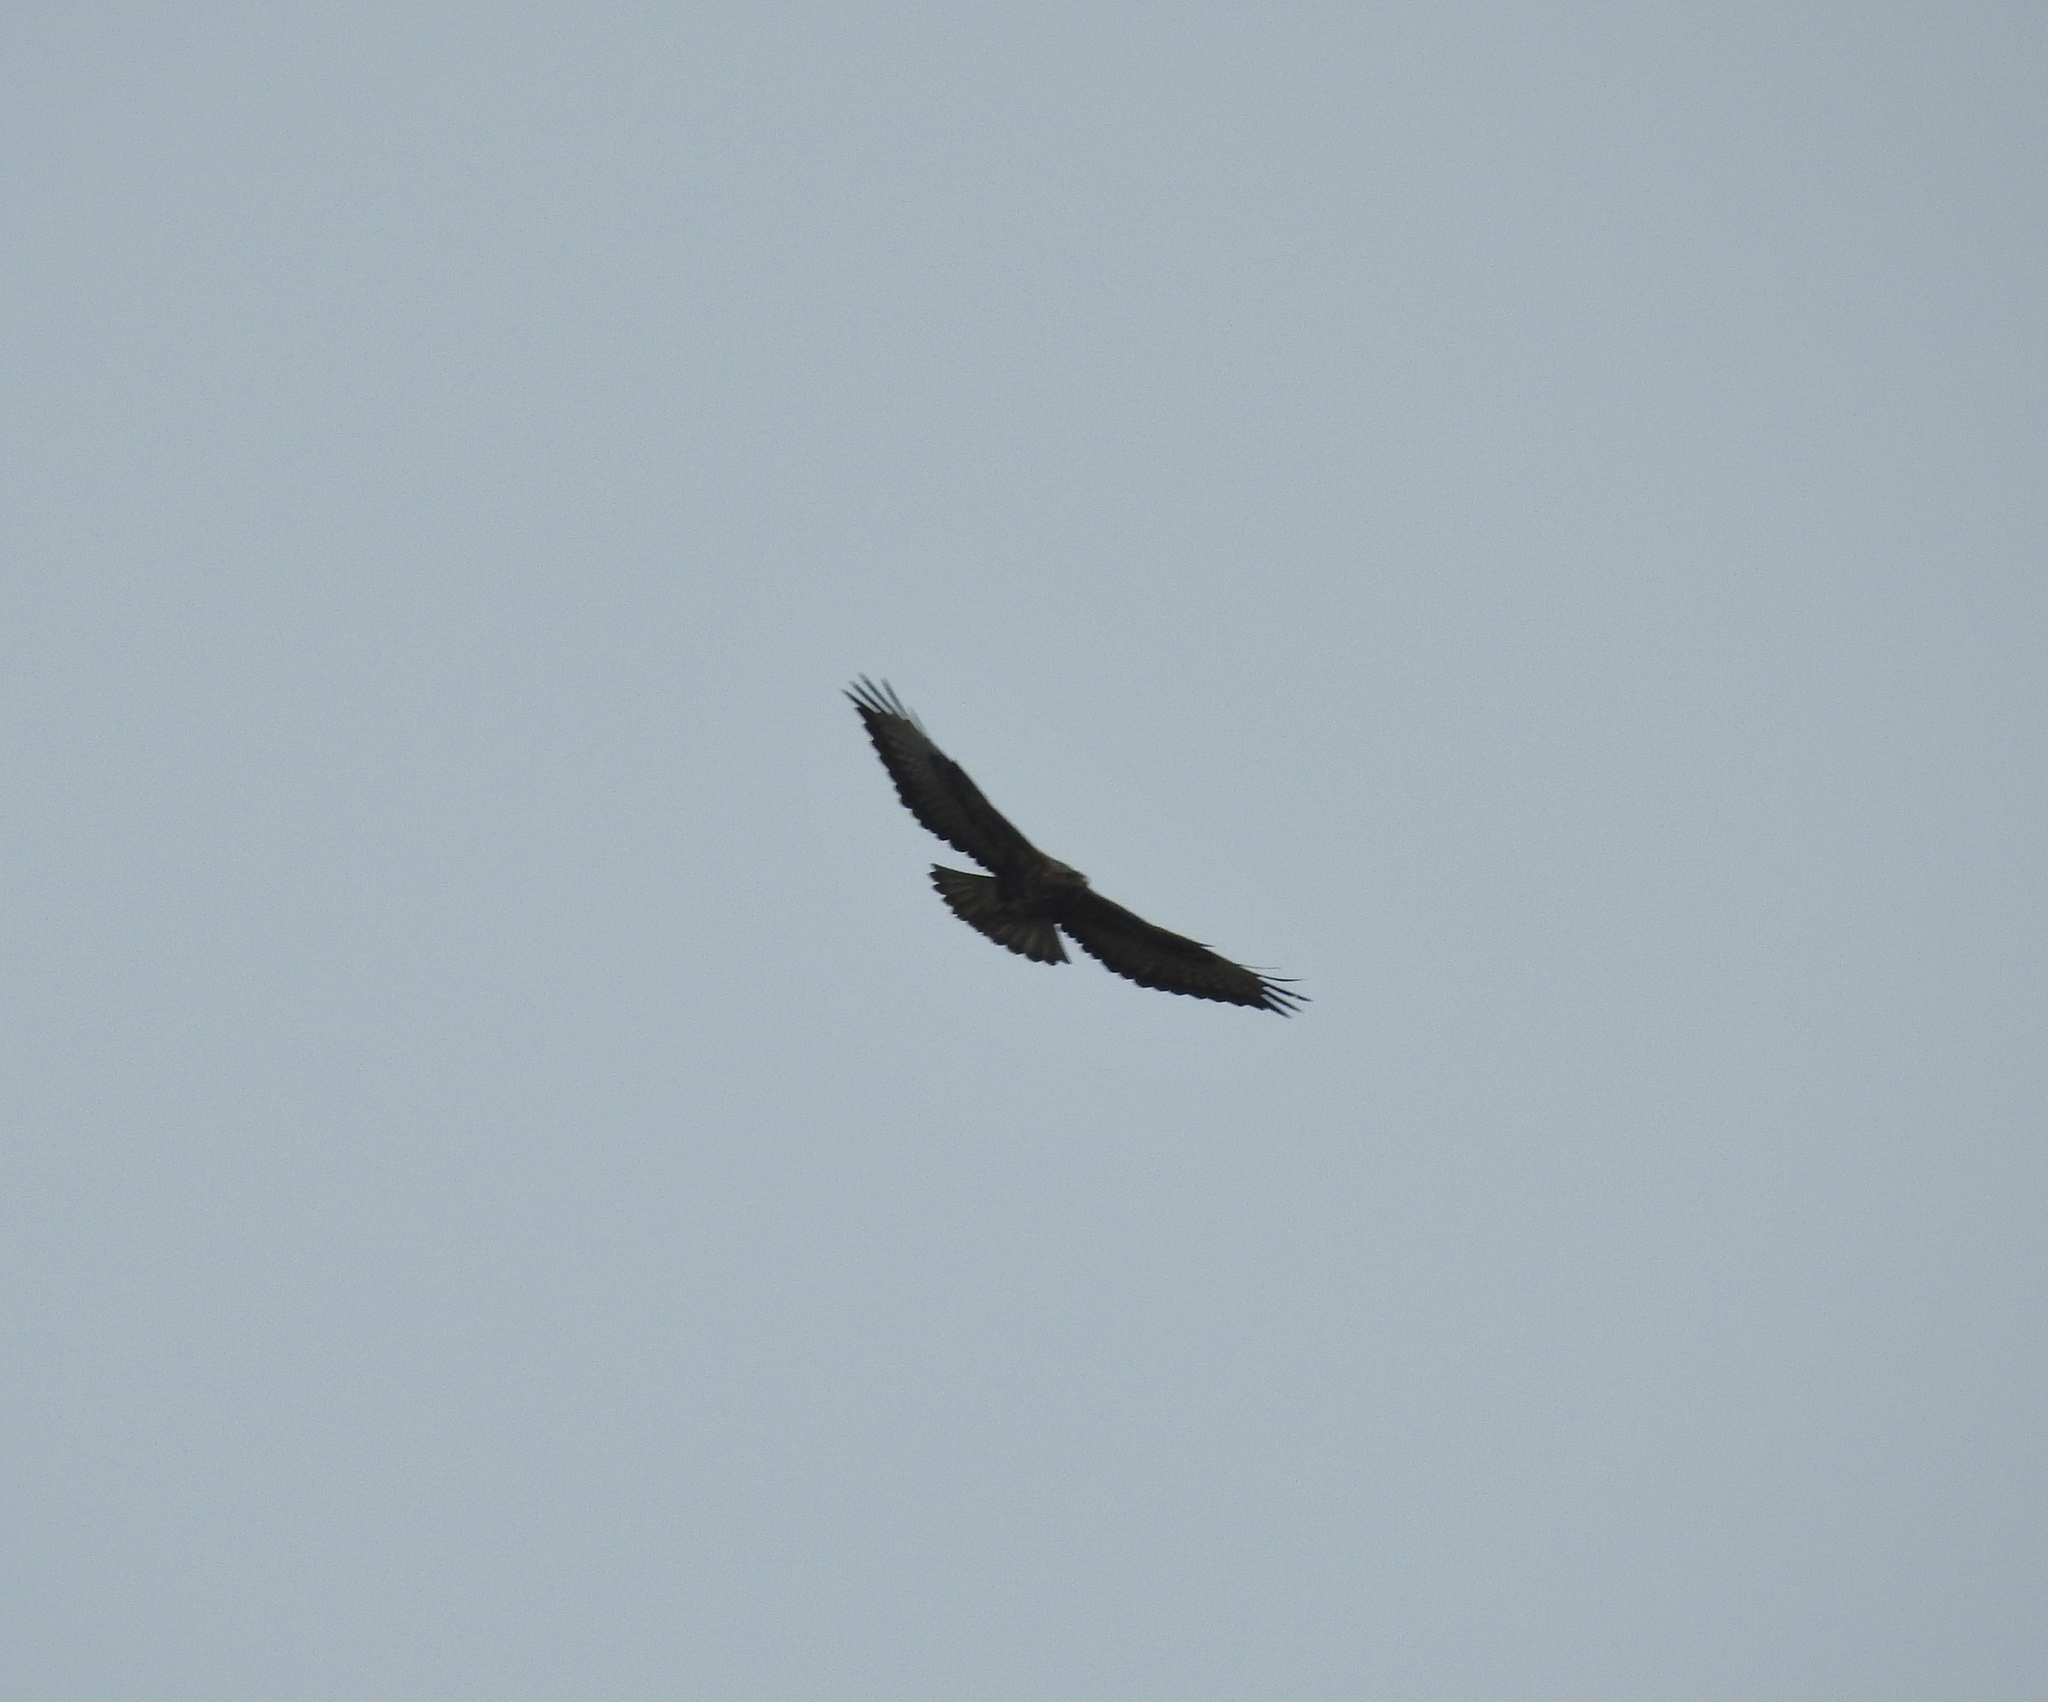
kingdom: Animalia
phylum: Chordata
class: Aves
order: Accipitriformes
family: Accipitridae
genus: Buteo
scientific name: Buteo buteo
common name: Common buzzard
